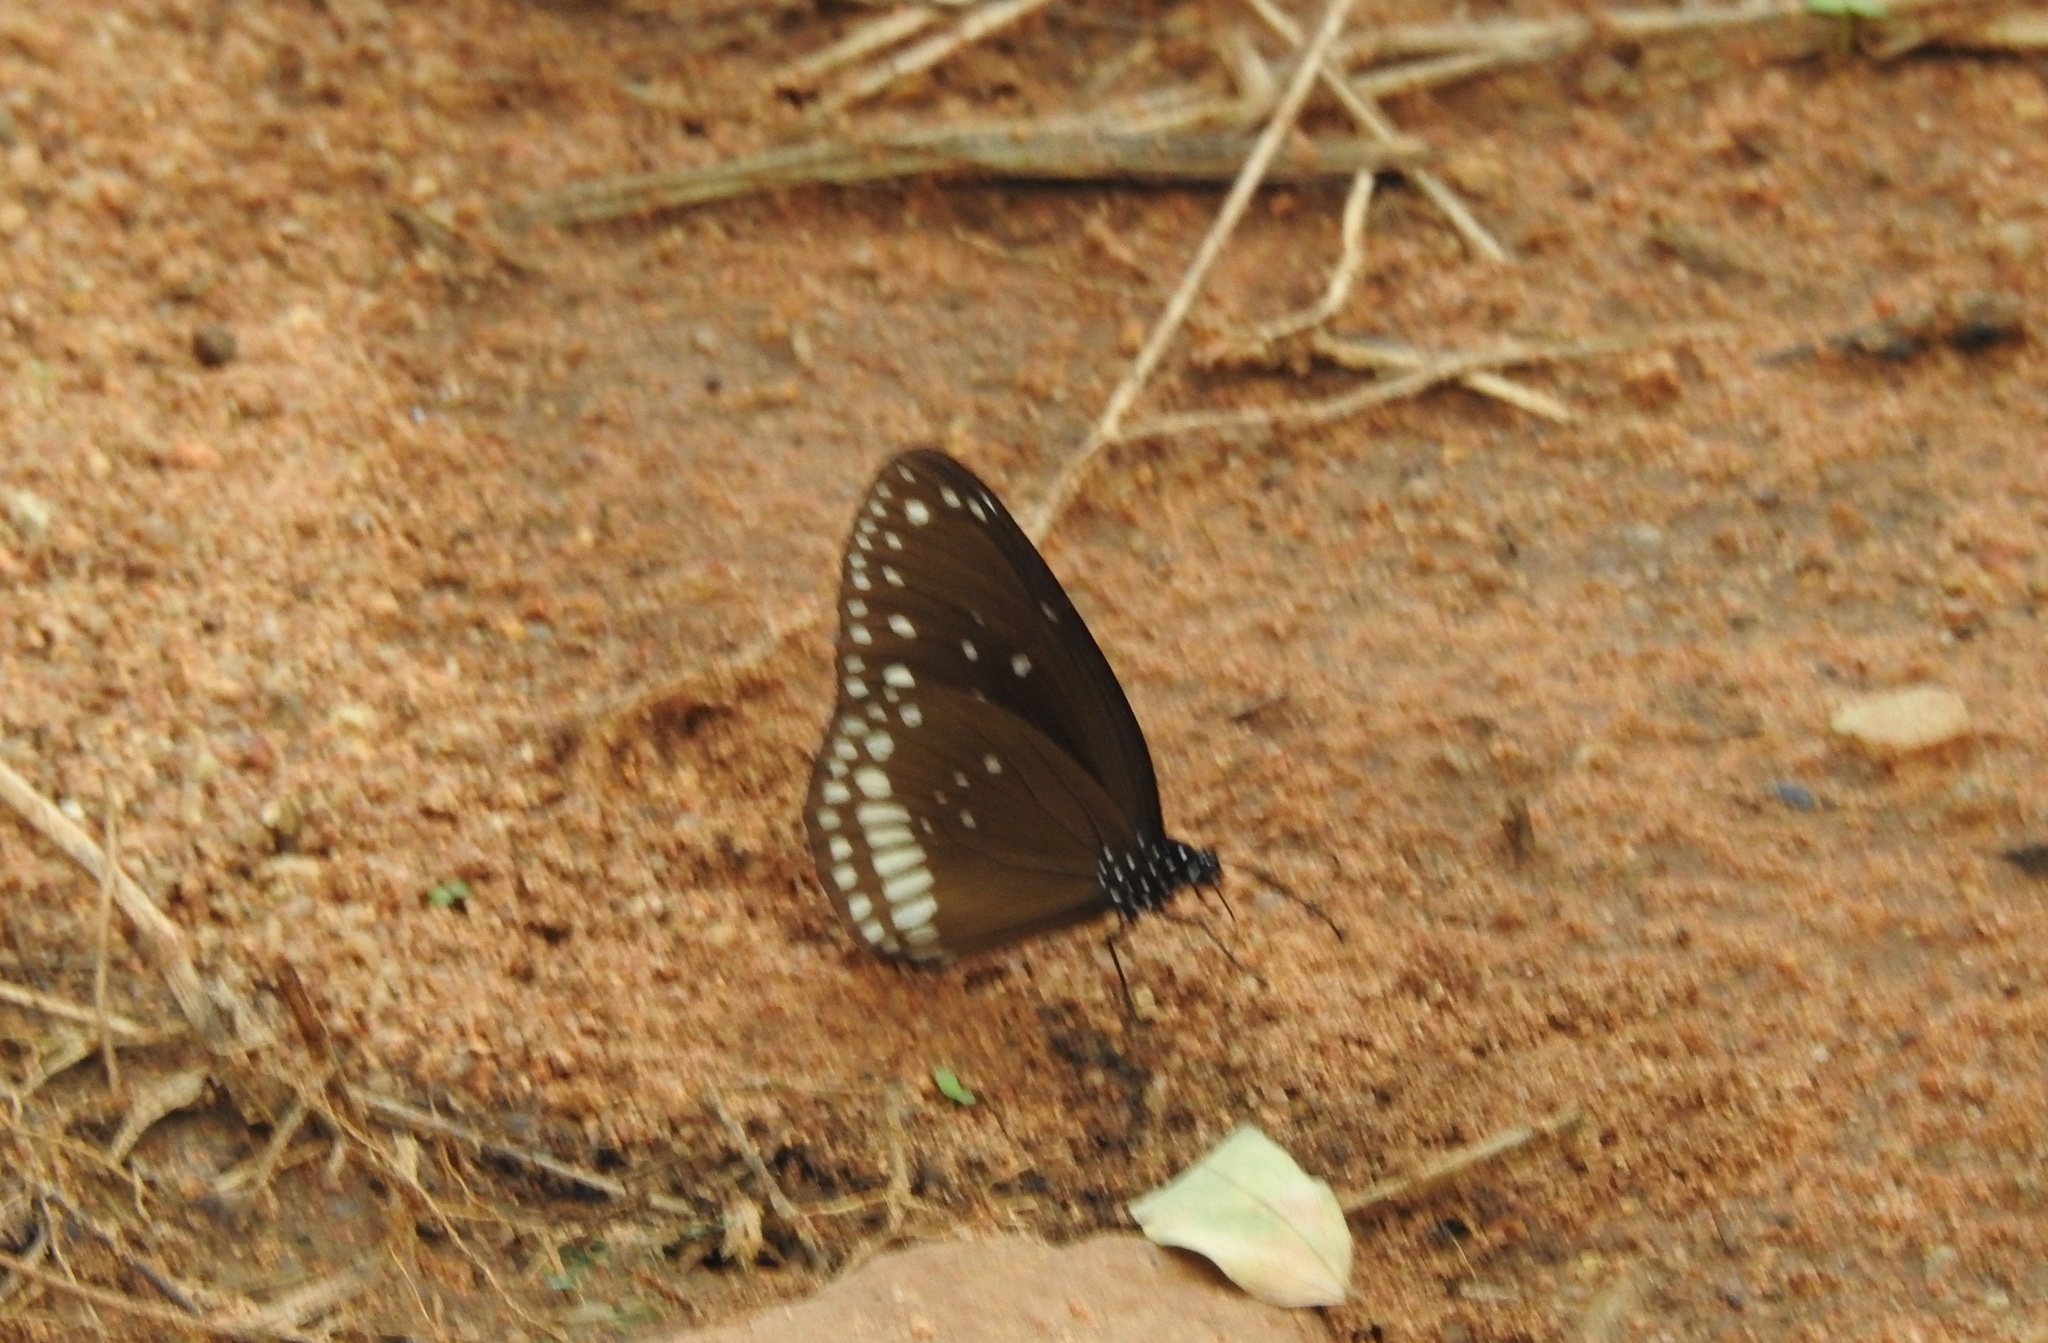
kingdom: Animalia
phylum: Arthropoda
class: Insecta
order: Lepidoptera
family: Nymphalidae
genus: Euploea
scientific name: Euploea core
